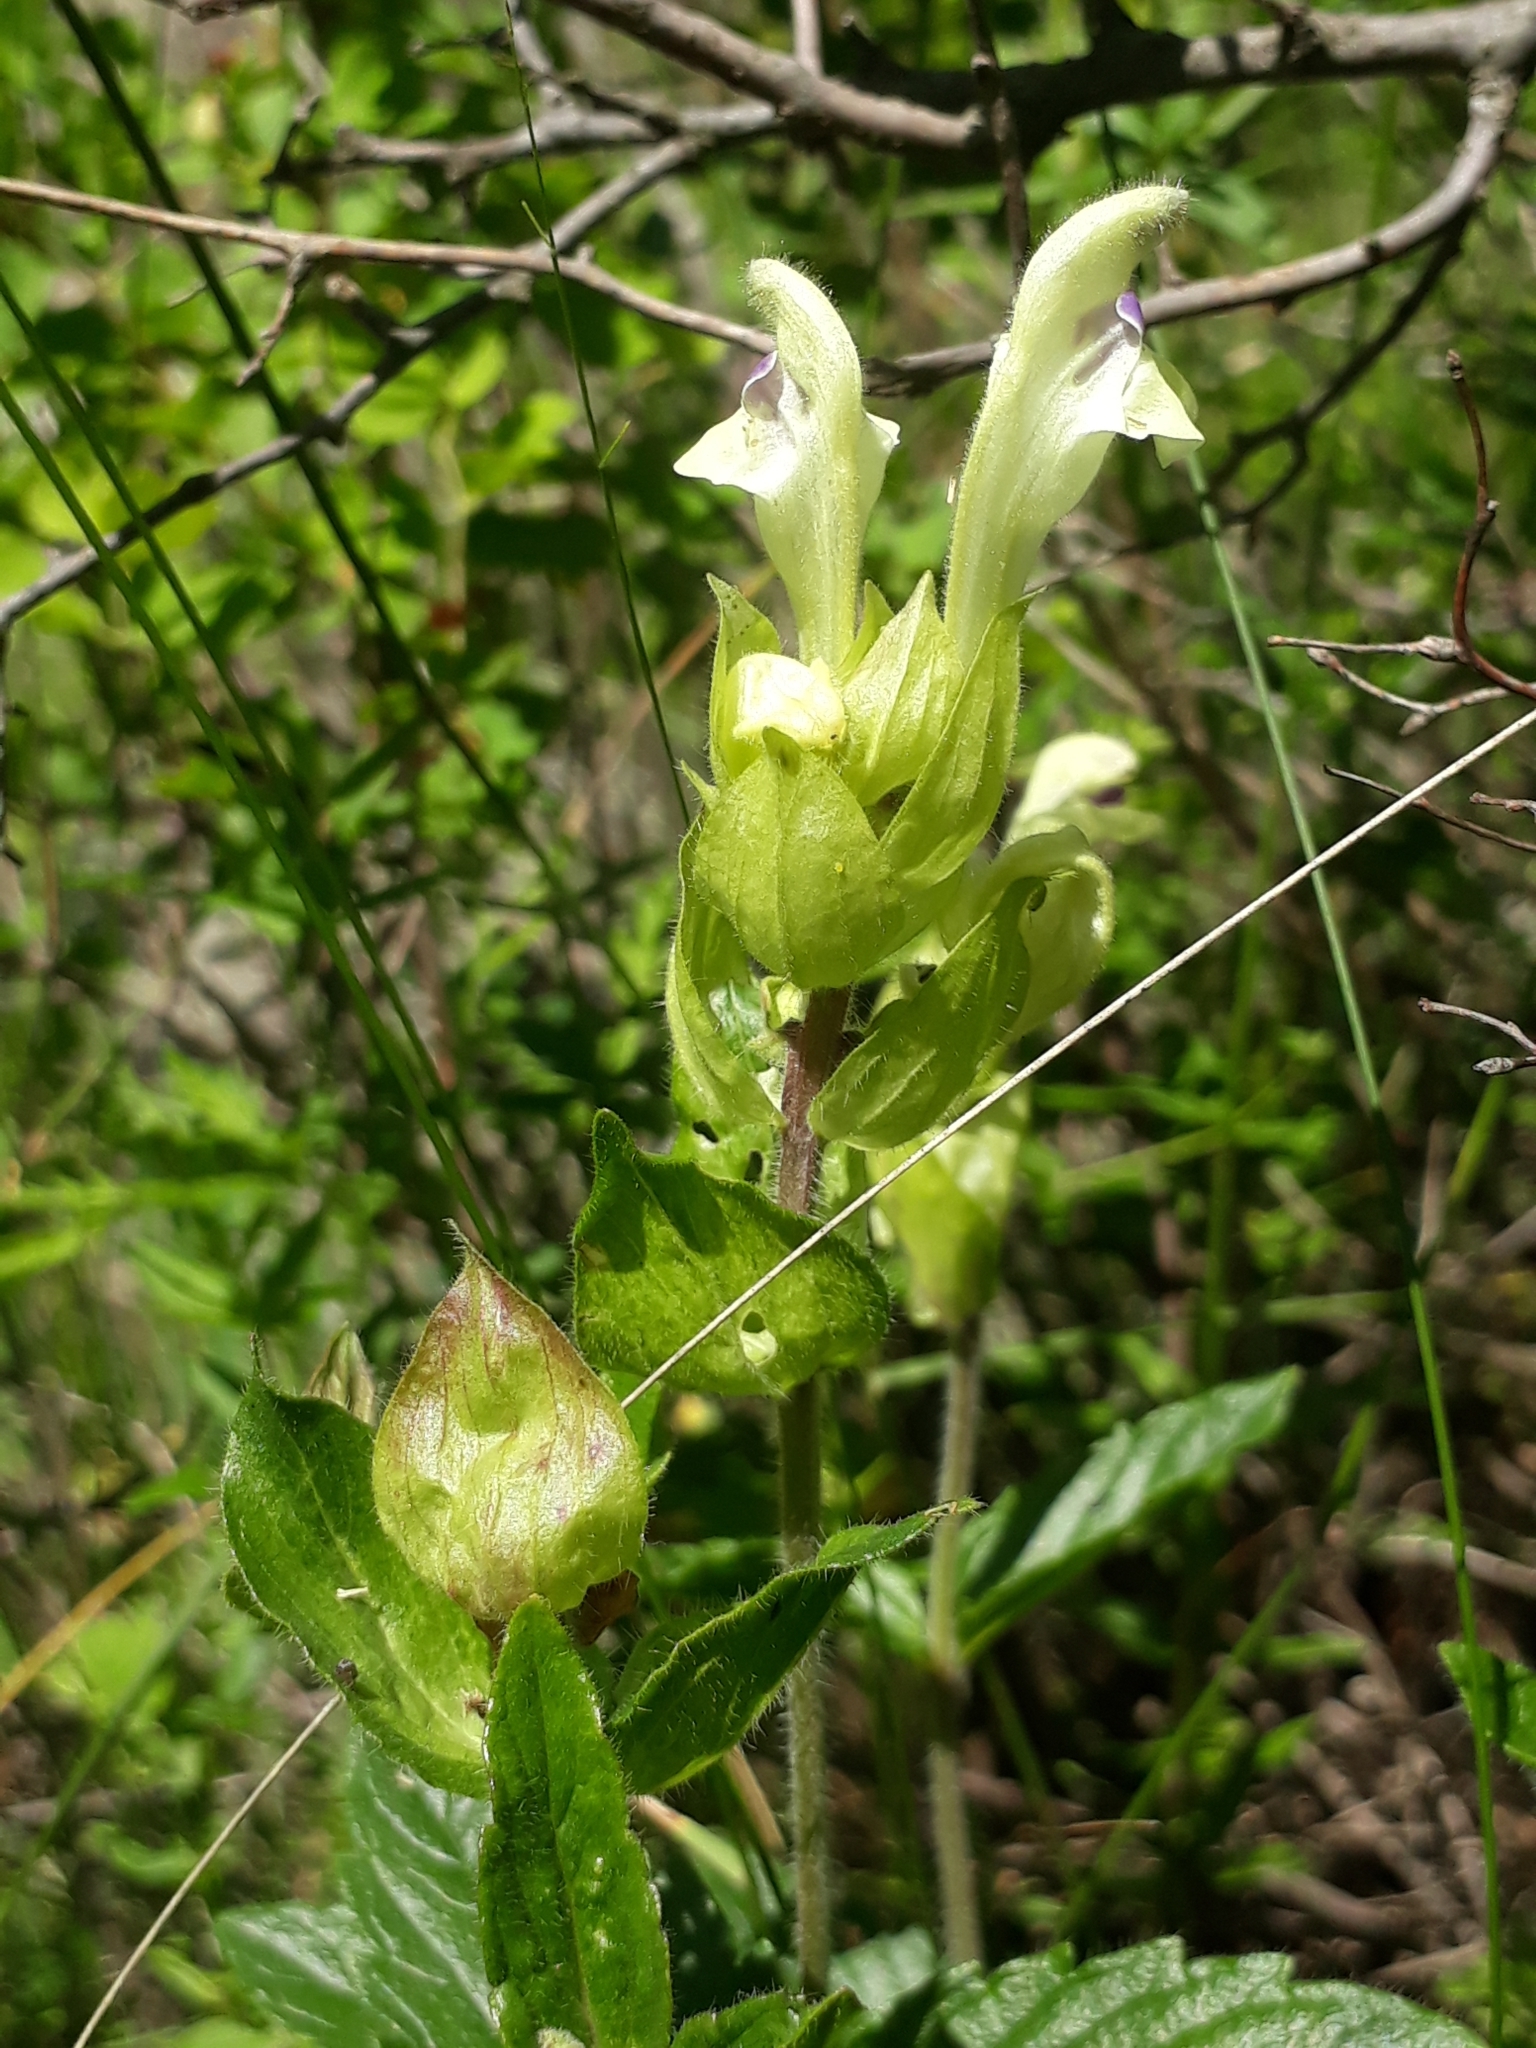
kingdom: Plantae
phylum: Tracheophyta
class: Magnoliopsida
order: Lamiales
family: Lamiaceae
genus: Scutellaria
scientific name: Scutellaria supina
